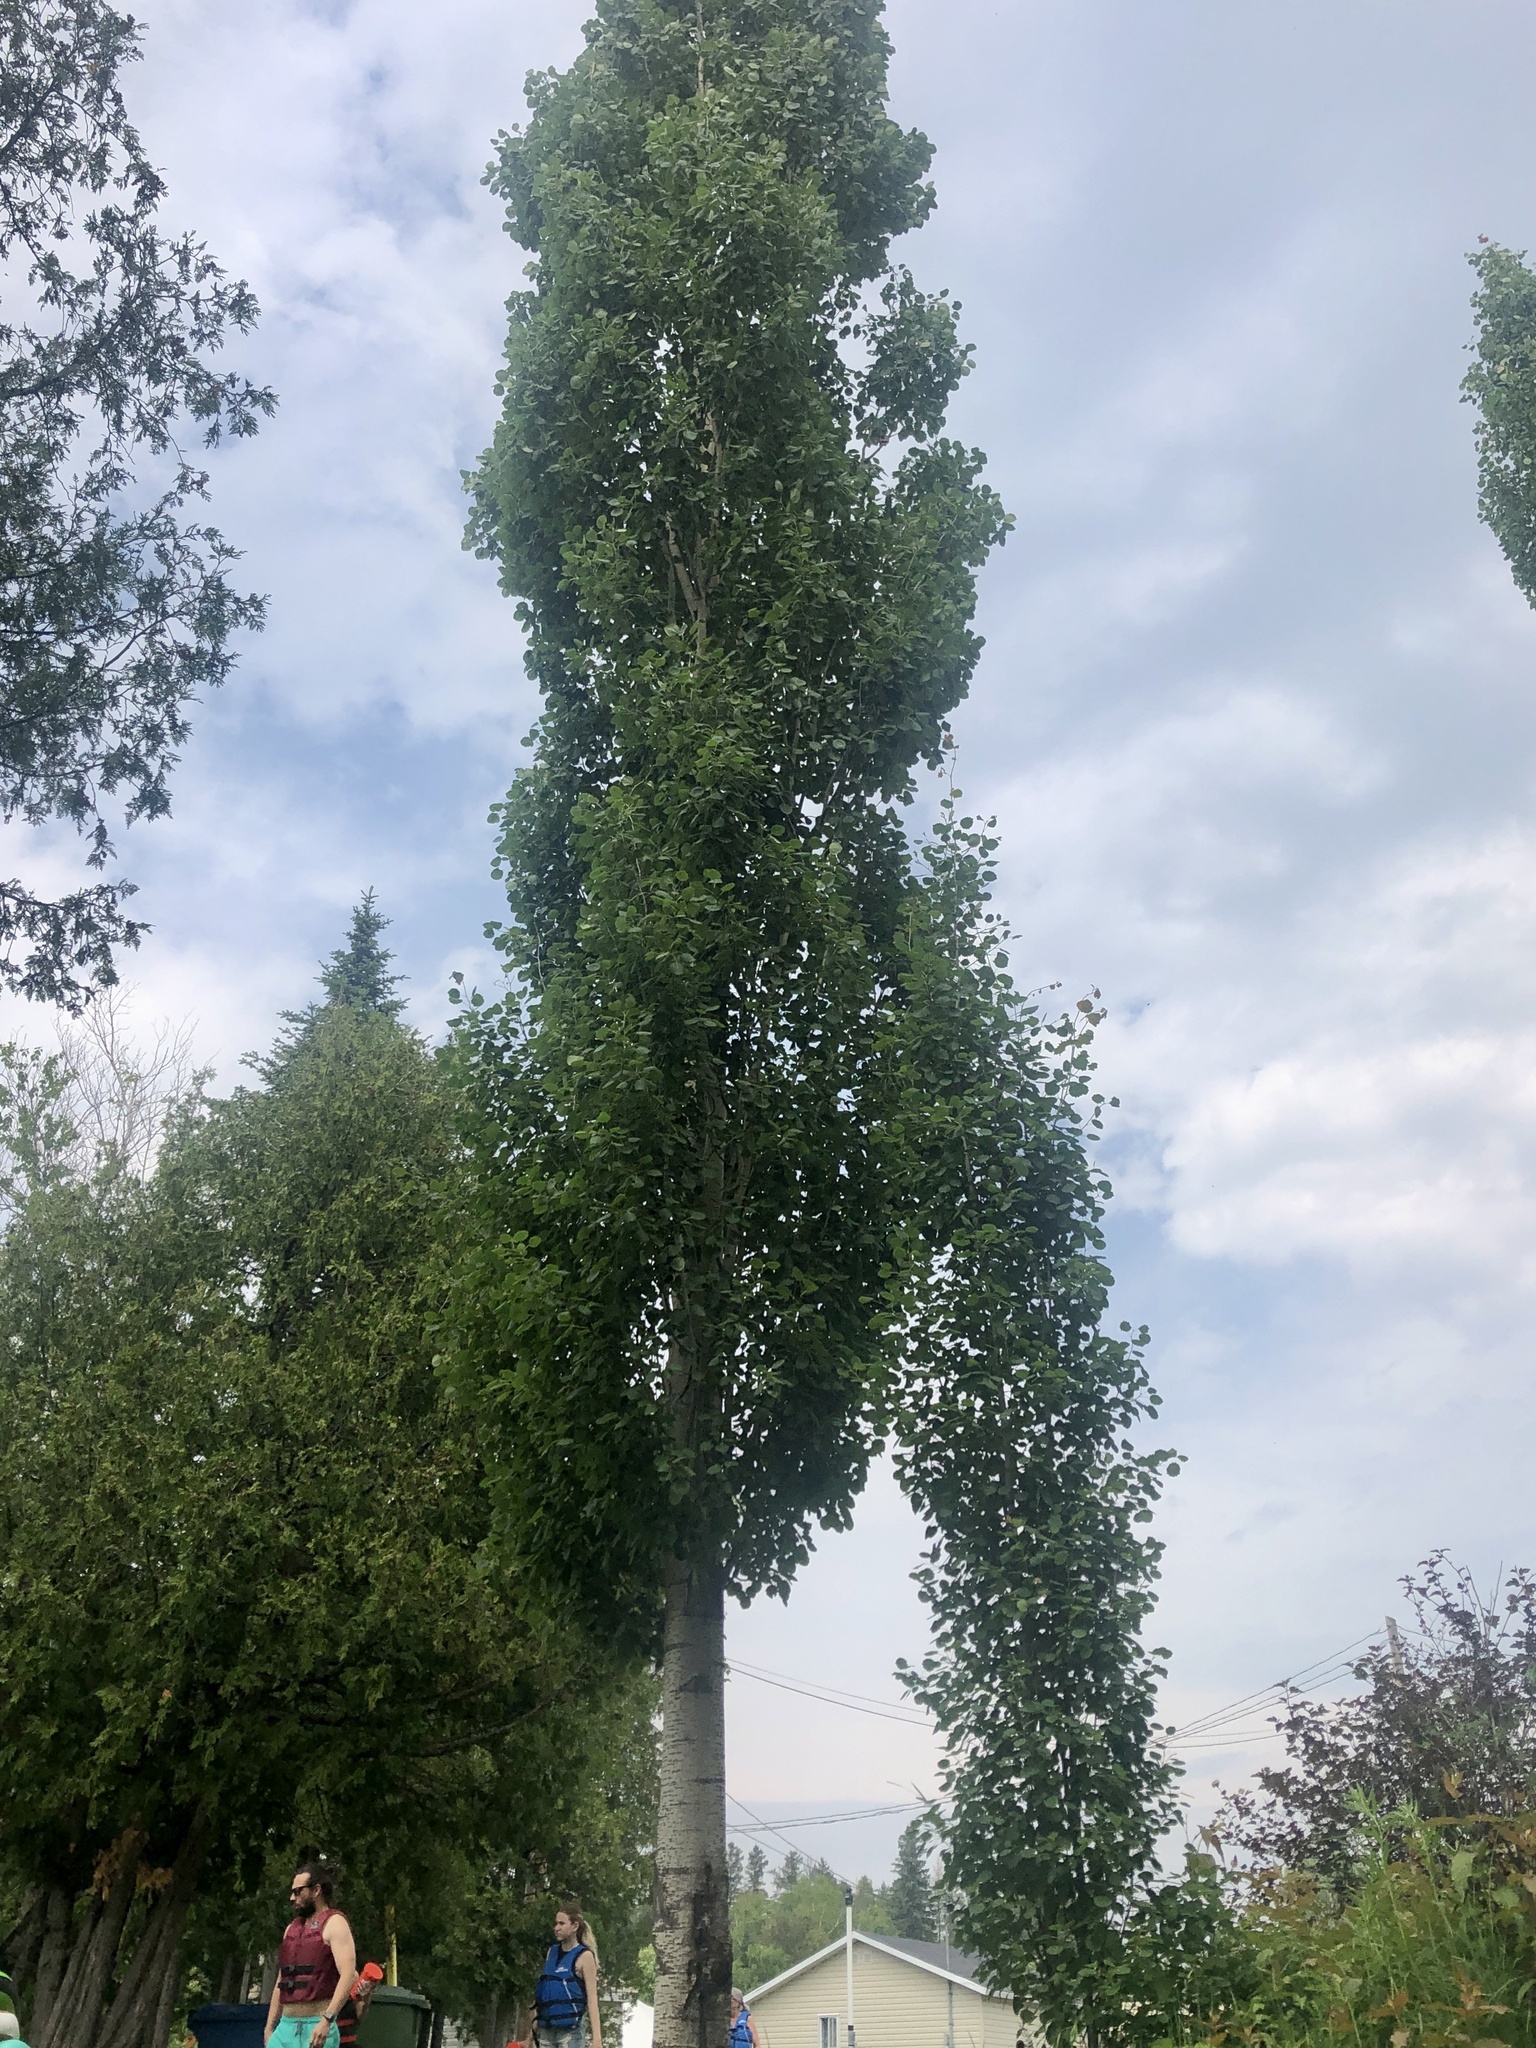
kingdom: Plantae
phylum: Tracheophyta
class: Magnoliopsida
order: Malpighiales
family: Salicaceae
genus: Populus
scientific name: Populus grandidentata
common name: Bigtooth aspen
